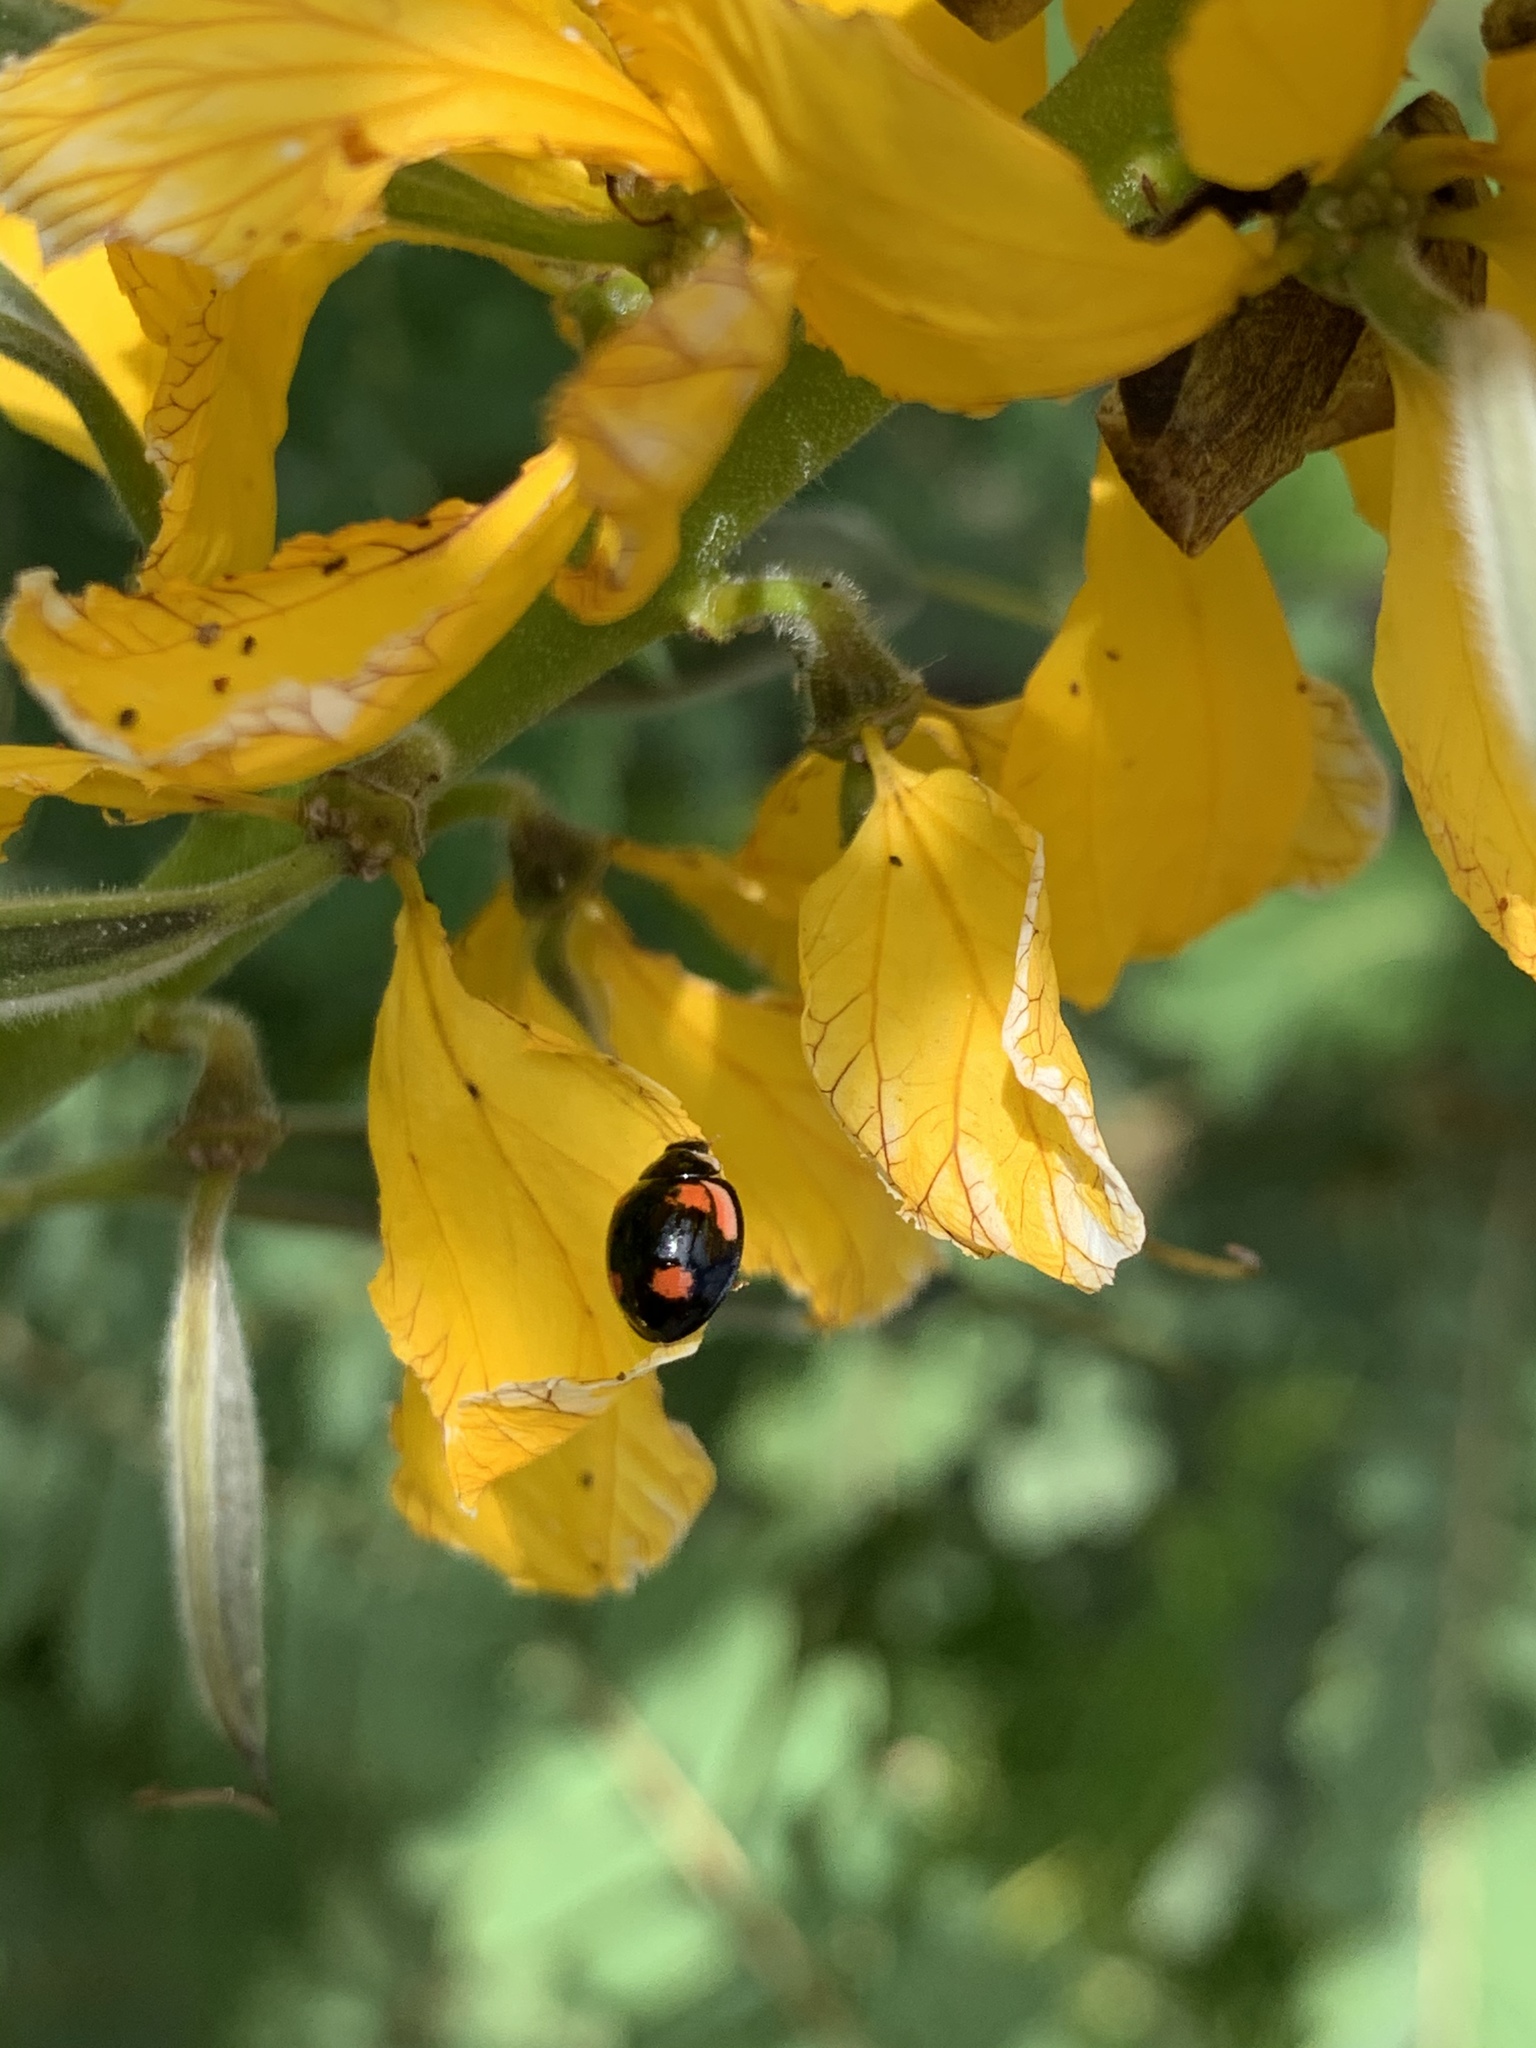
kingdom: Animalia
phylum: Arthropoda
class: Insecta
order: Coleoptera
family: Coccinellidae
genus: Cheilomenes
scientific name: Cheilomenes sexmaculata
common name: Ladybird beetle
